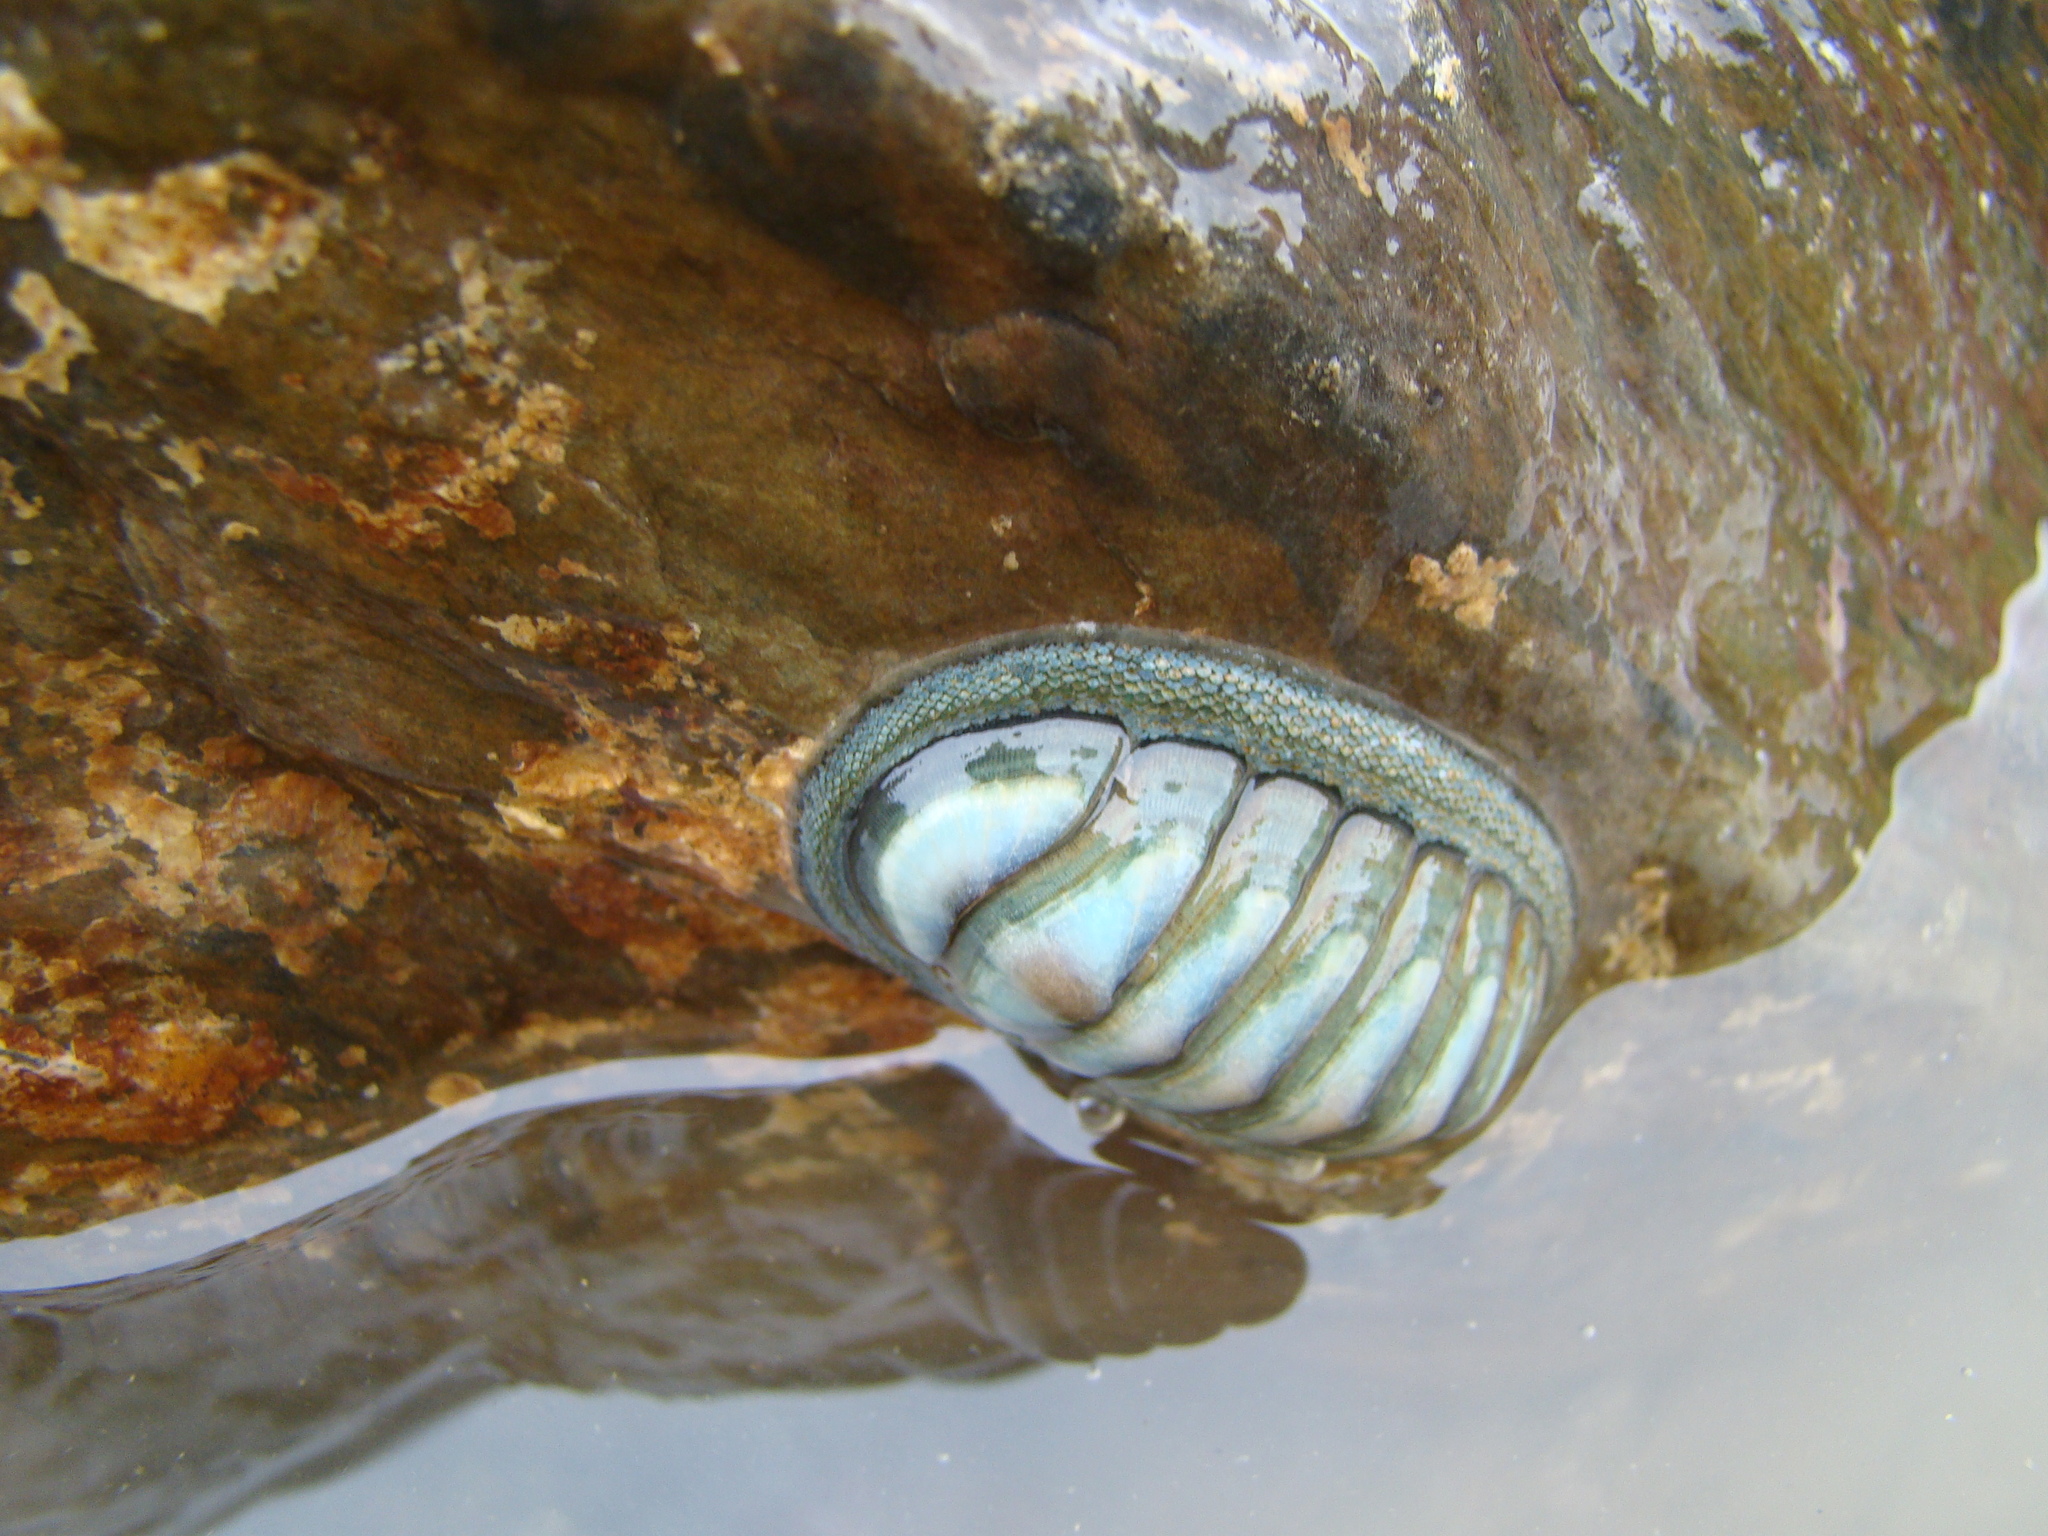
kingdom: Animalia
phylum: Mollusca
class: Polyplacophora
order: Chitonida
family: Chitonidae
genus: Chiton
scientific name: Chiton glaucus
